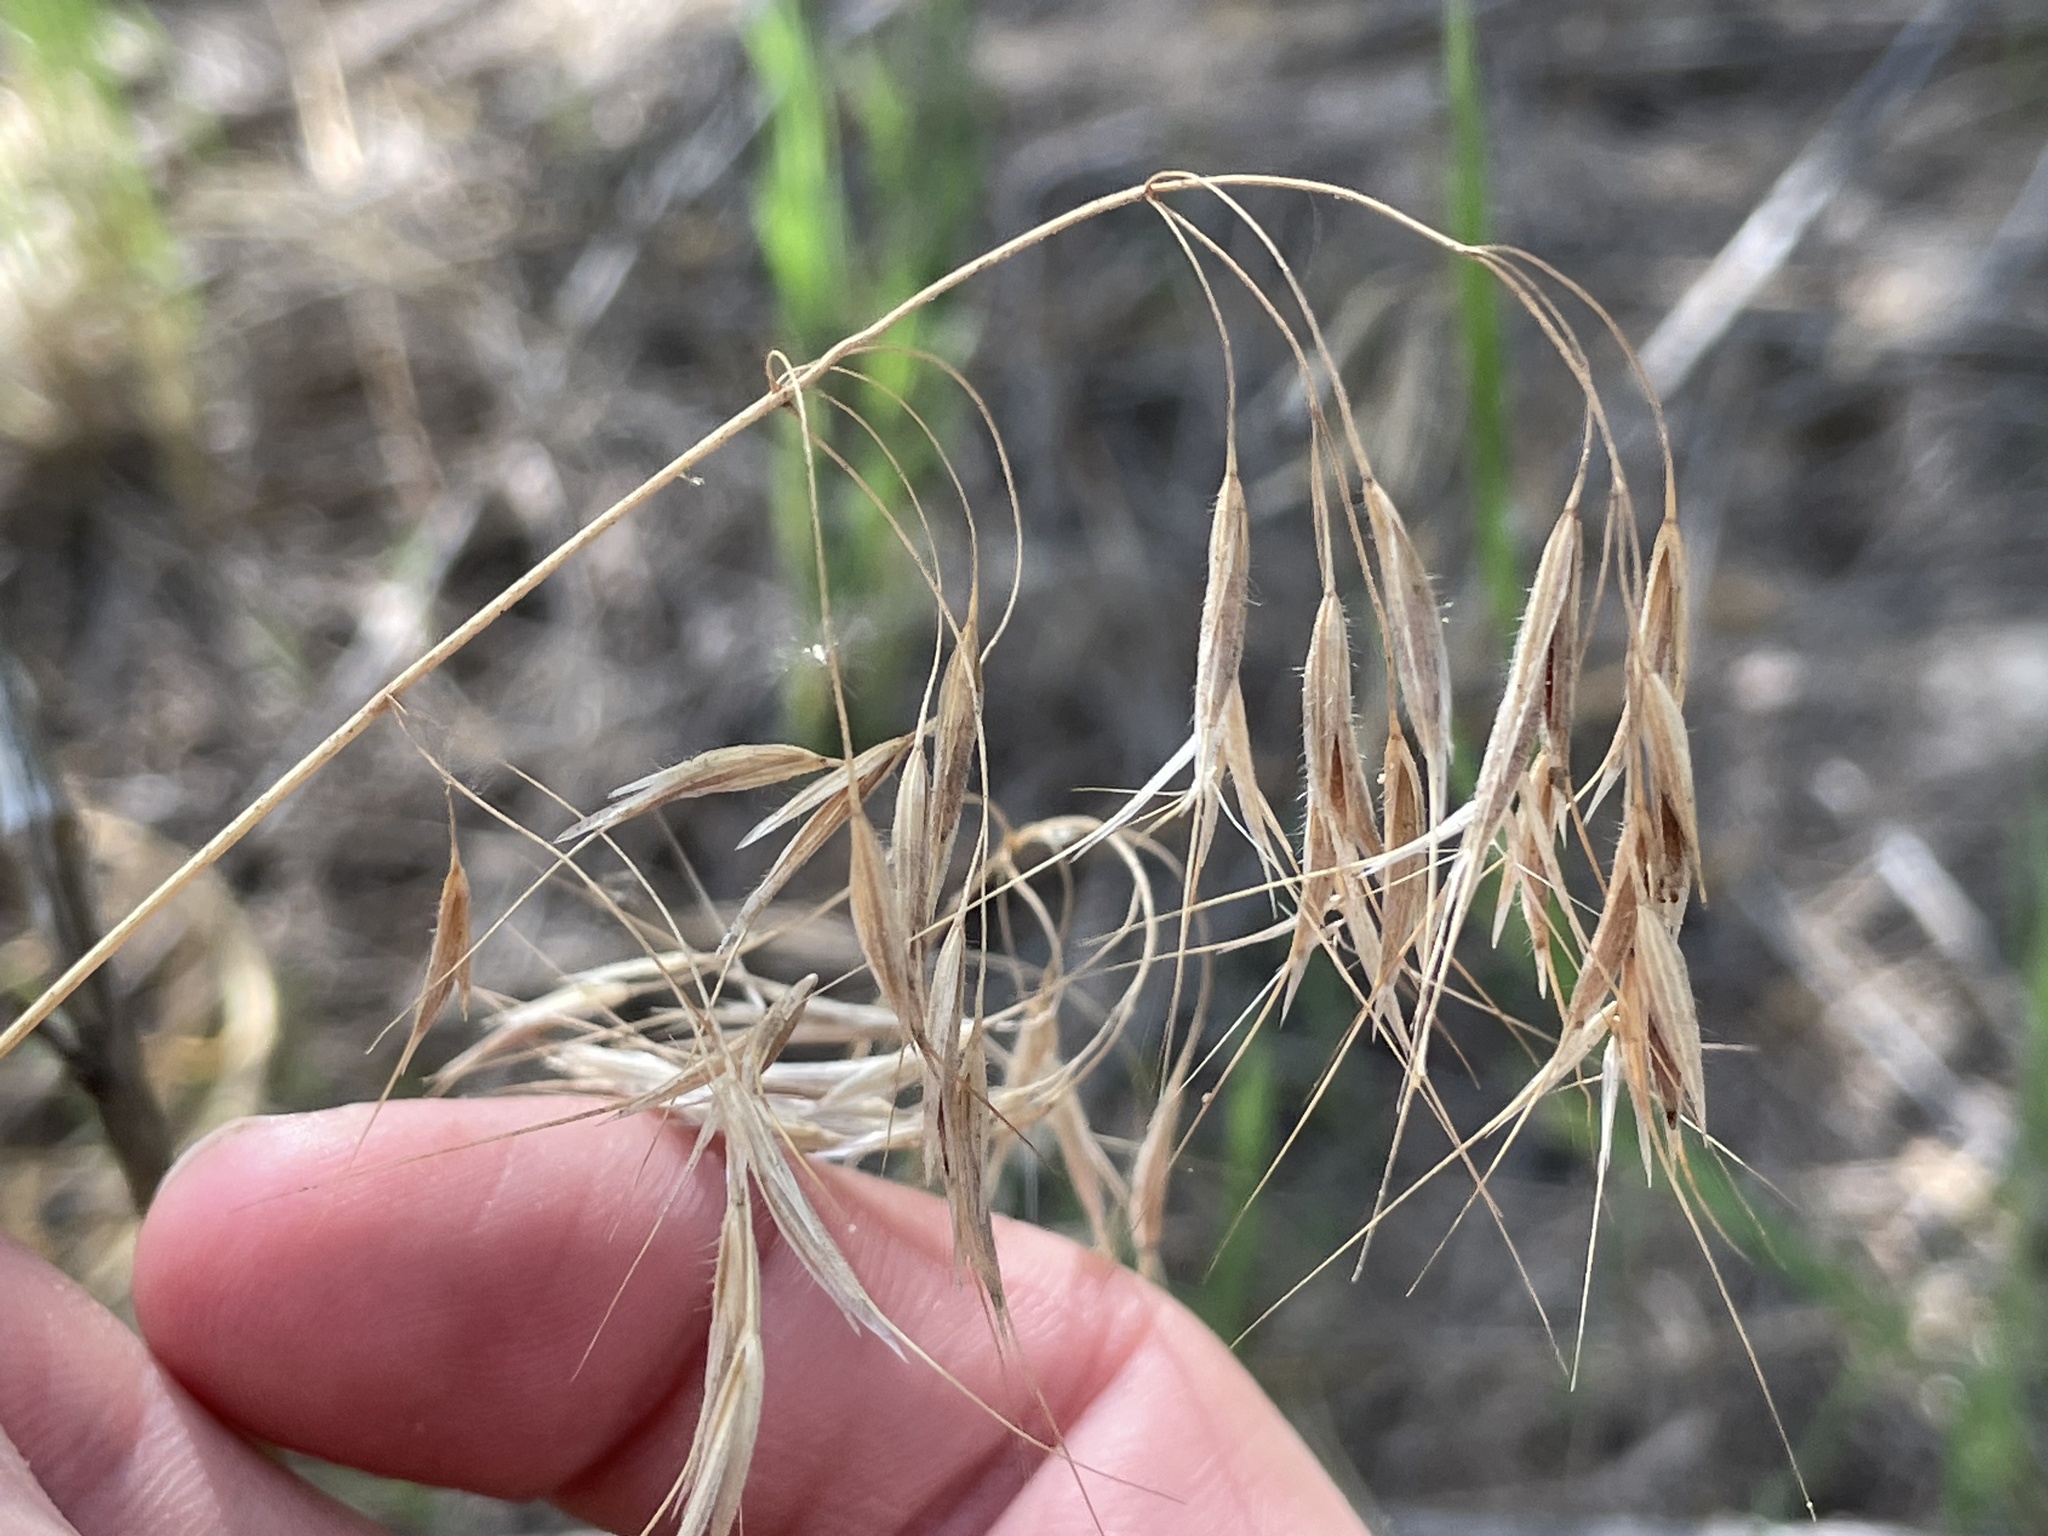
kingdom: Plantae
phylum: Tracheophyta
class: Liliopsida
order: Poales
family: Poaceae
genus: Bromus
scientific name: Bromus tectorum
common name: Cheatgrass
